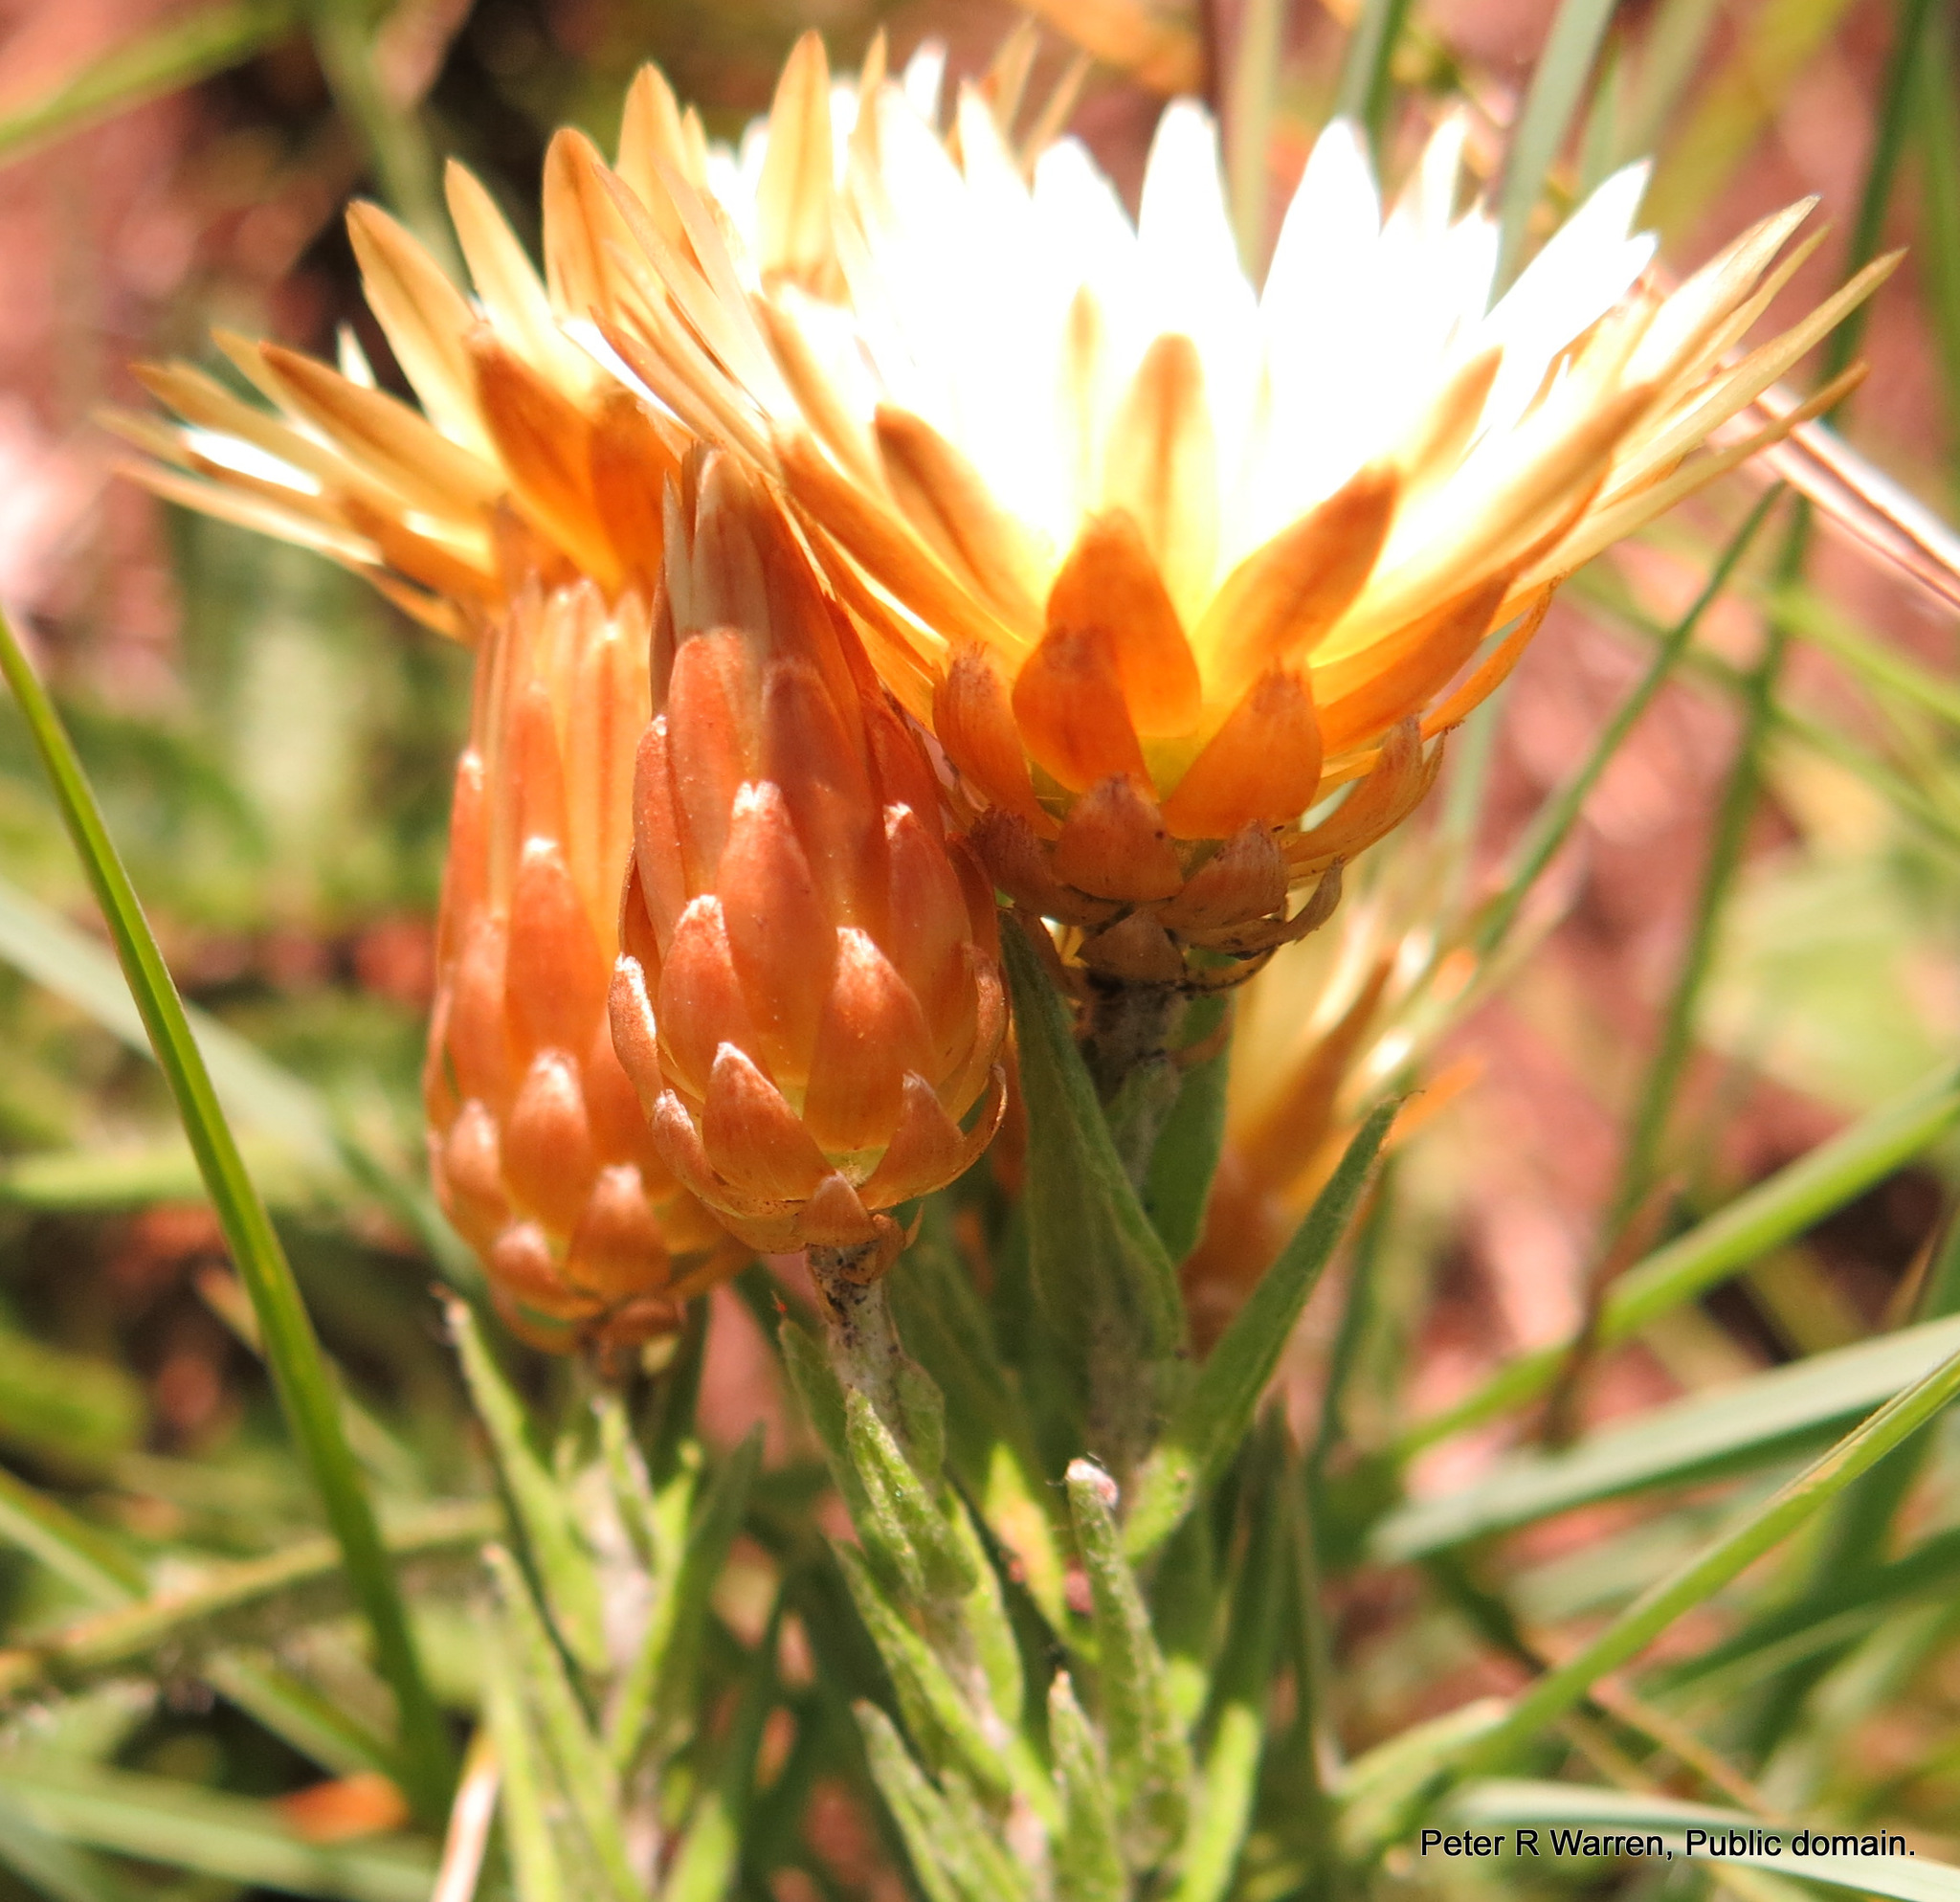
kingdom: Plantae
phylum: Tracheophyta
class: Magnoliopsida
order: Asterales
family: Asteraceae
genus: Helichrysum
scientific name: Helichrysum herbaceum
